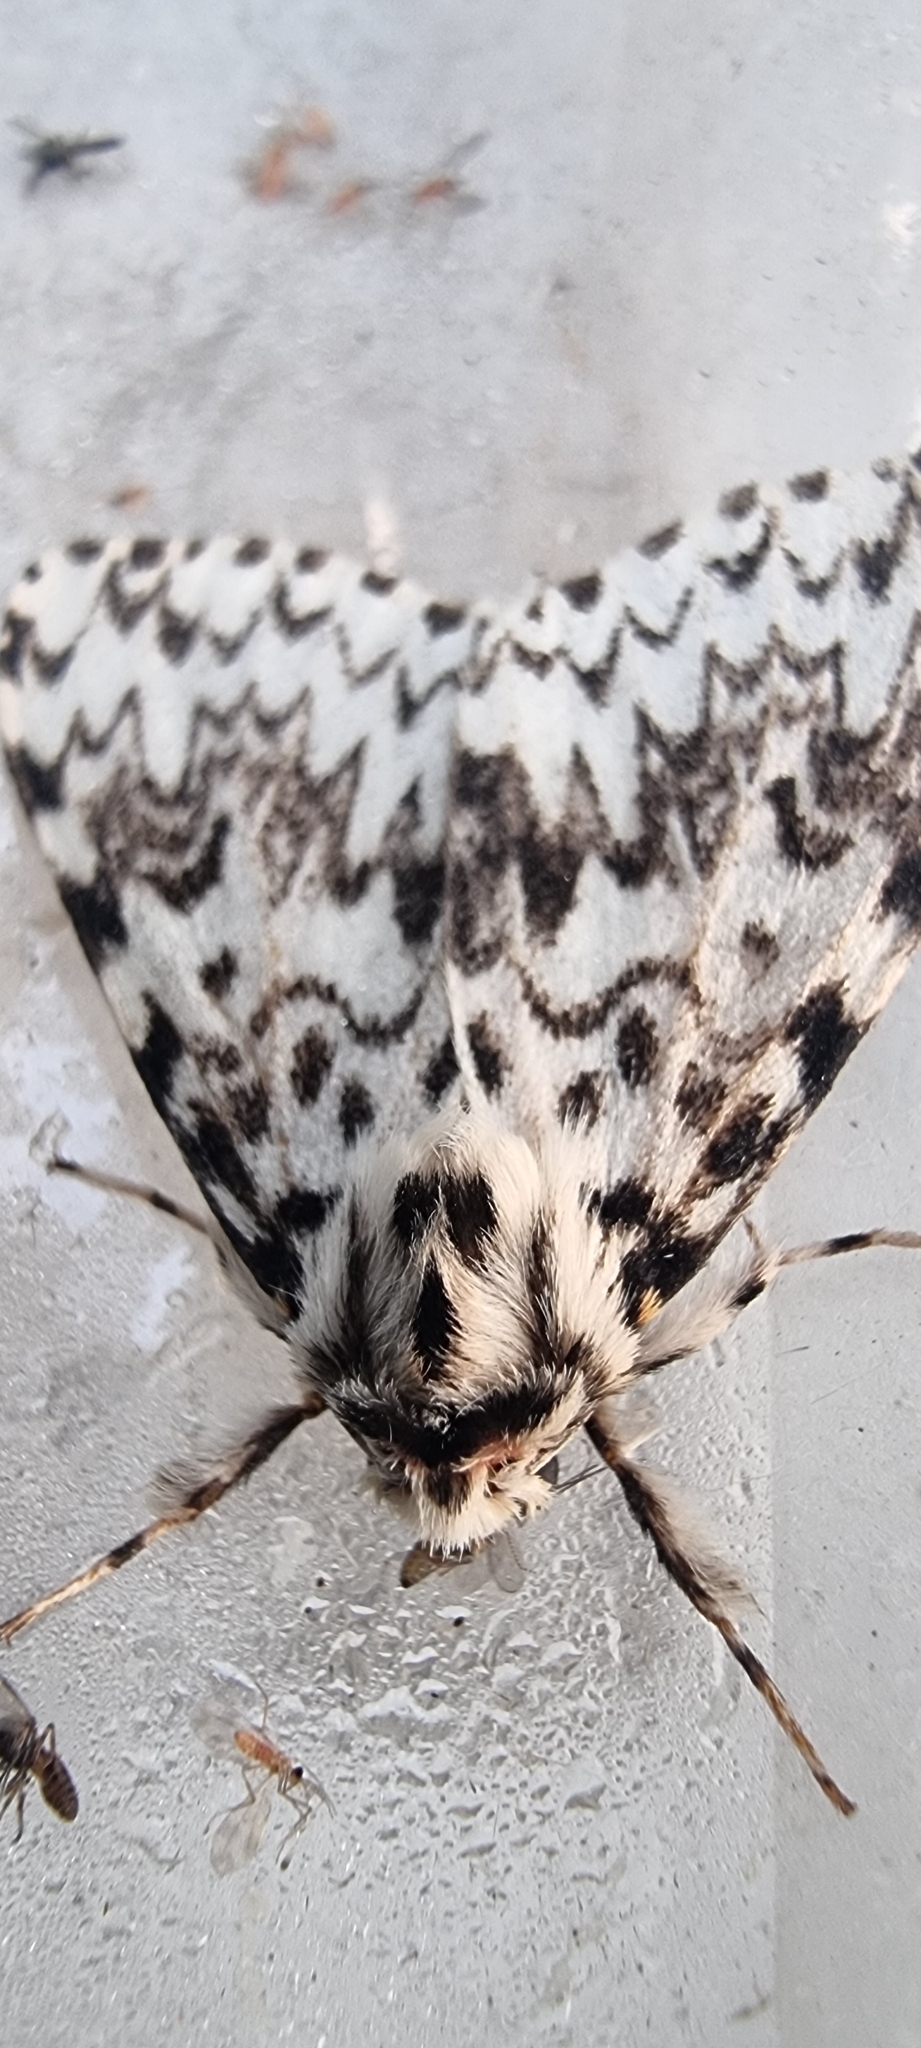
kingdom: Animalia
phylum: Arthropoda
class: Insecta
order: Lepidoptera
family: Erebidae
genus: Lymantria
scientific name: Lymantria monacha
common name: Black arches
